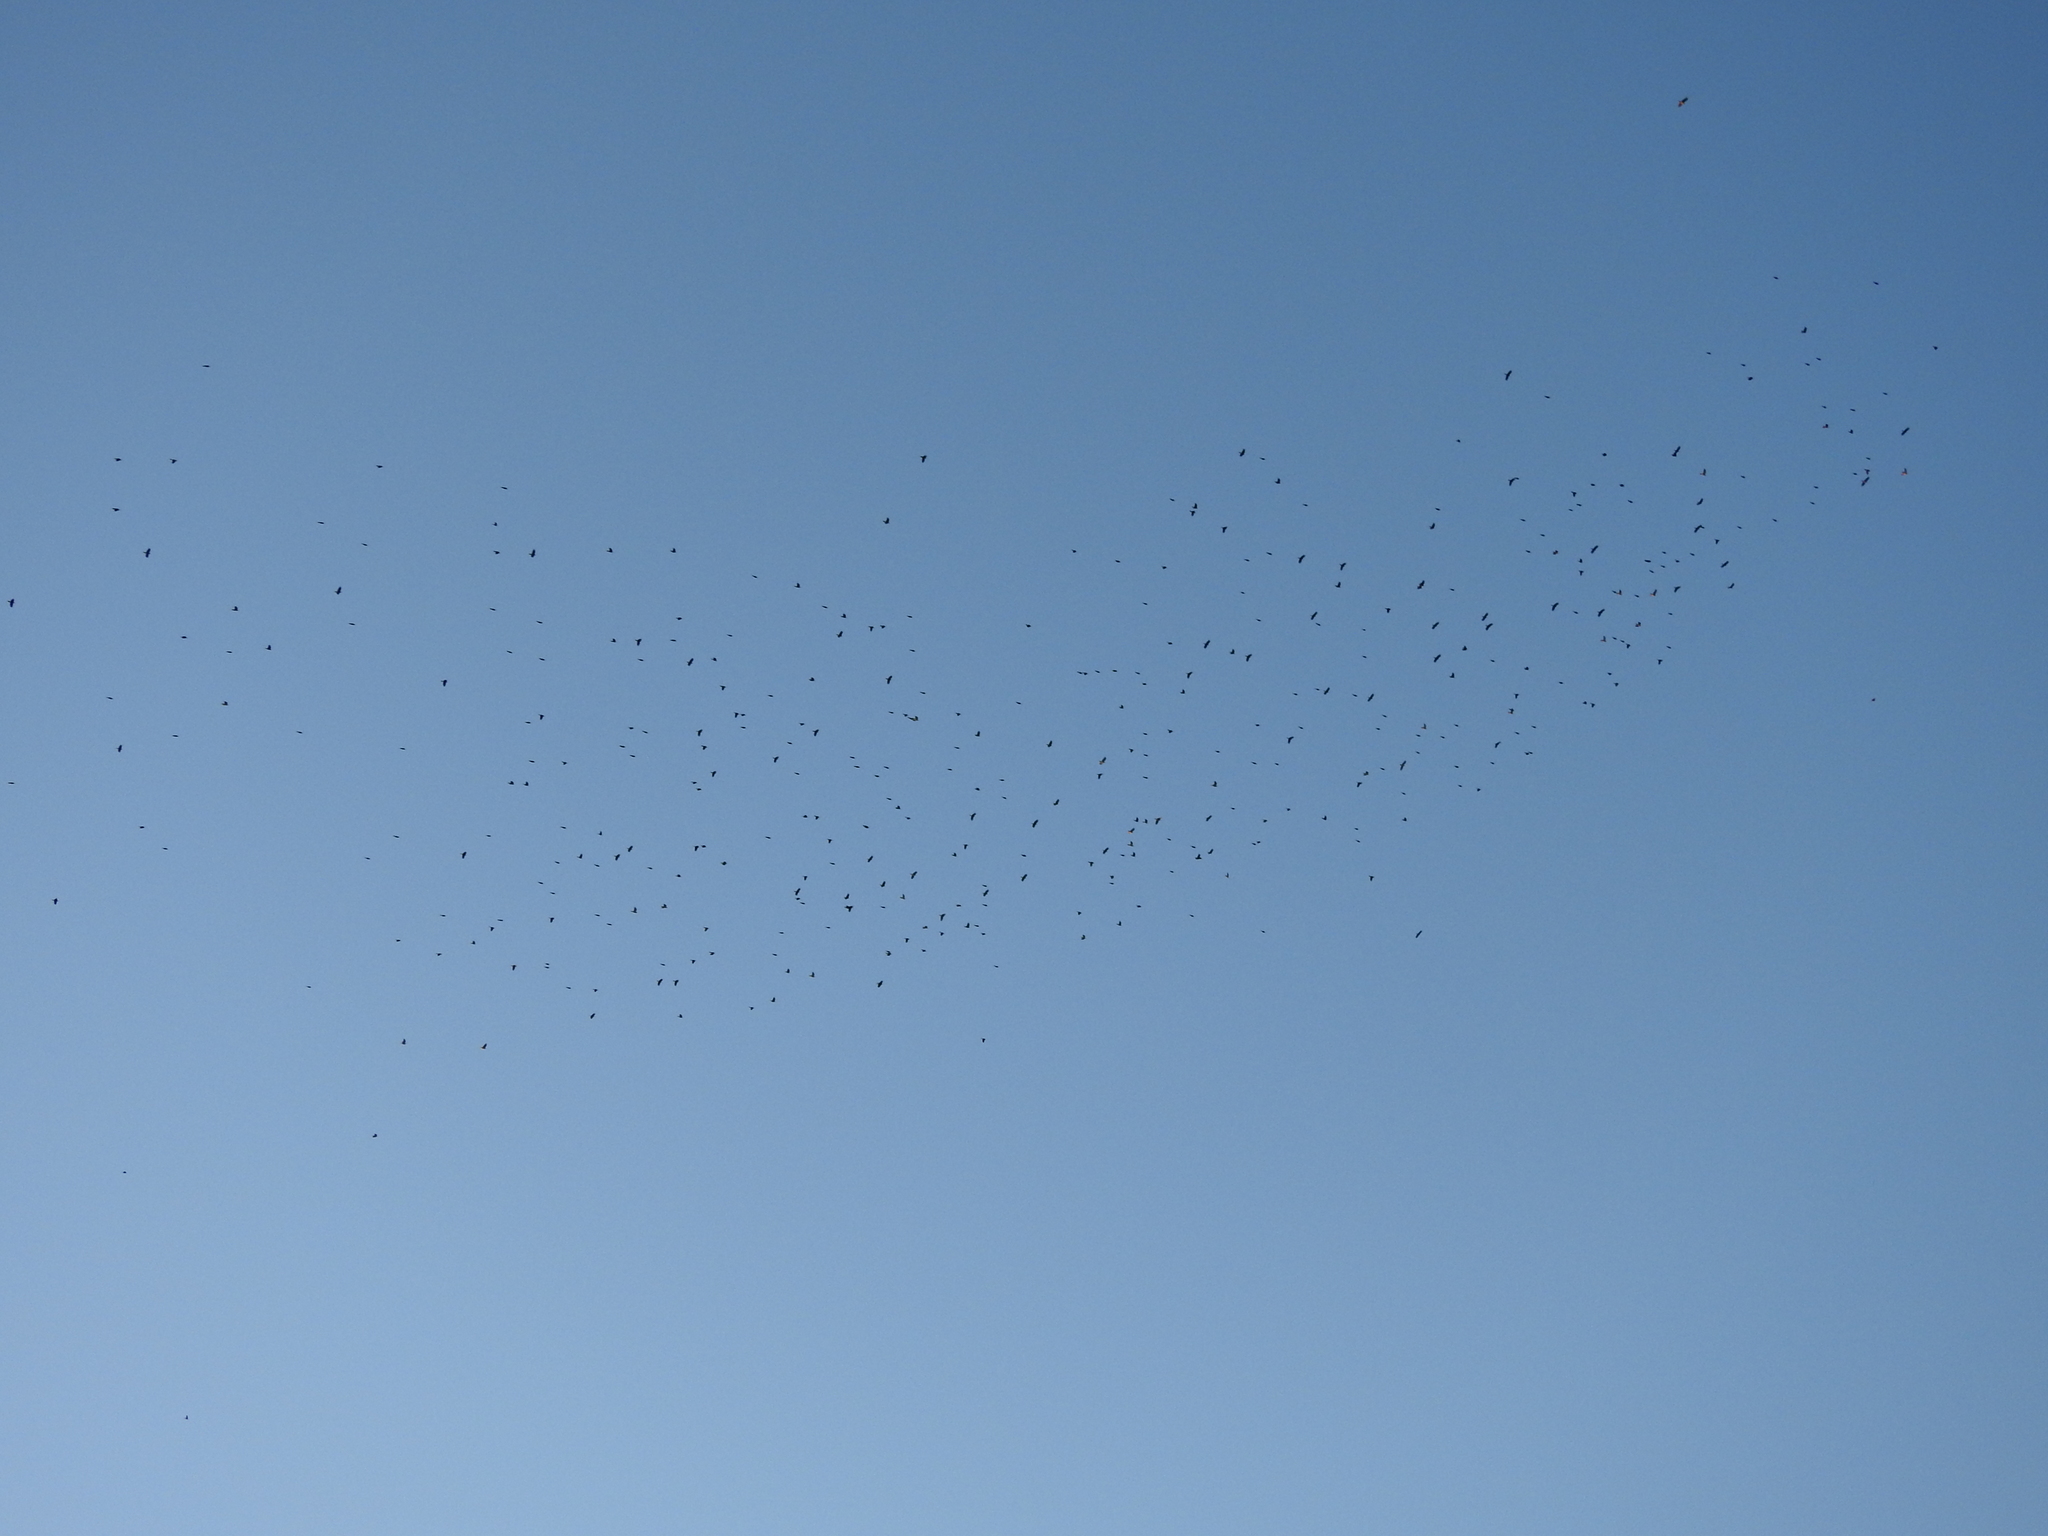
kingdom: Animalia
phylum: Chordata
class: Aves
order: Charadriiformes
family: Scolopacidae
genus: Numenius
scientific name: Numenius americanus
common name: Long-billed curlew
